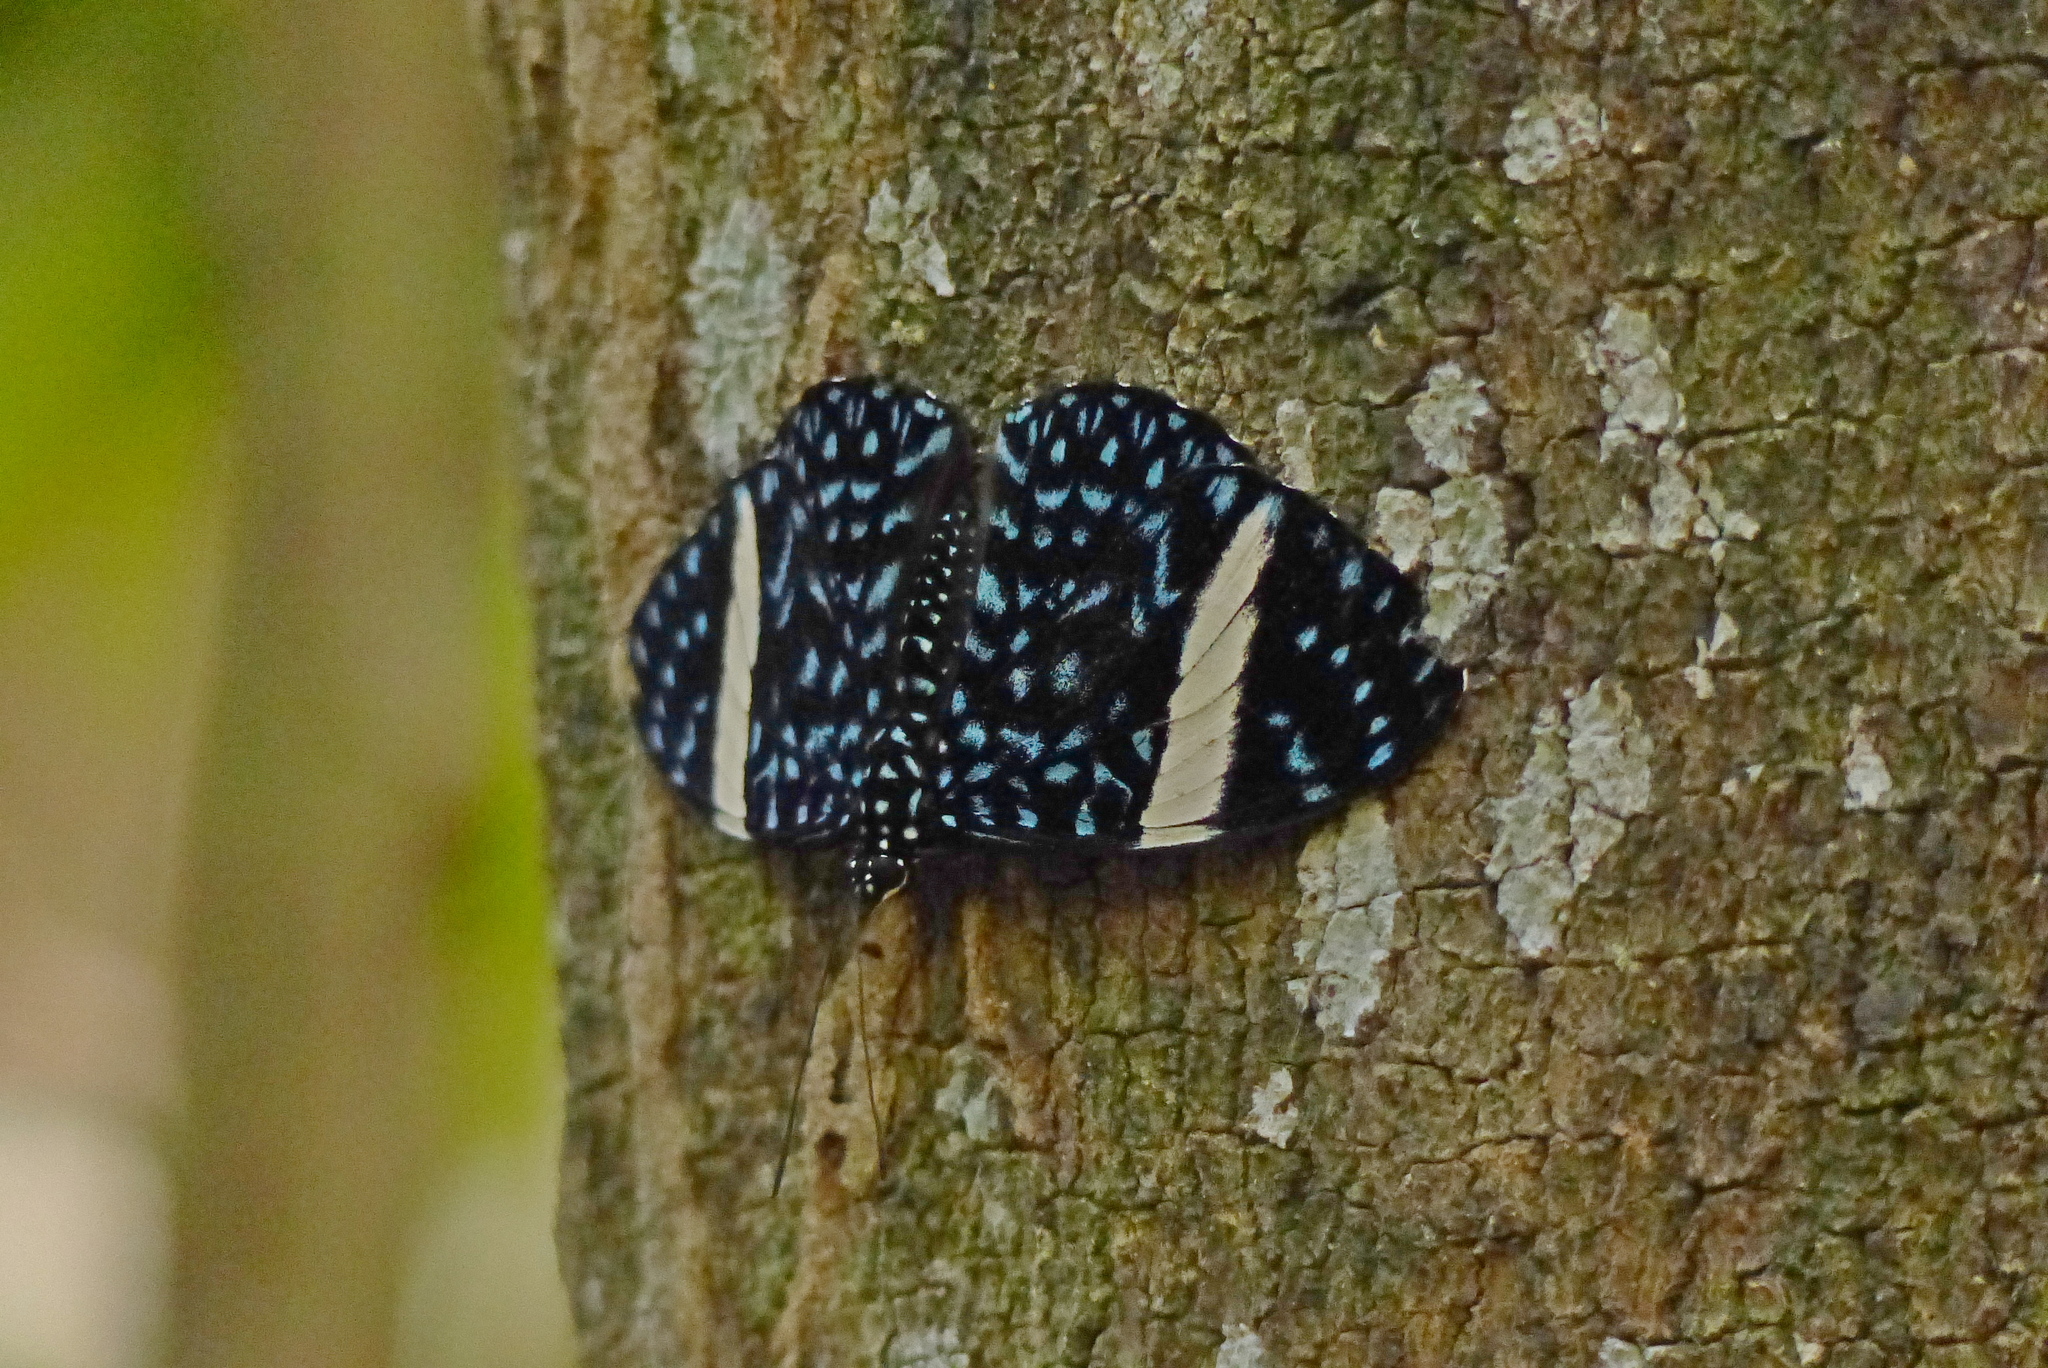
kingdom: Animalia
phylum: Arthropoda
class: Insecta
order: Lepidoptera
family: Nymphalidae
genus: Hamadryas
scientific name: Hamadryas laodamia
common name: Starry night cracker
